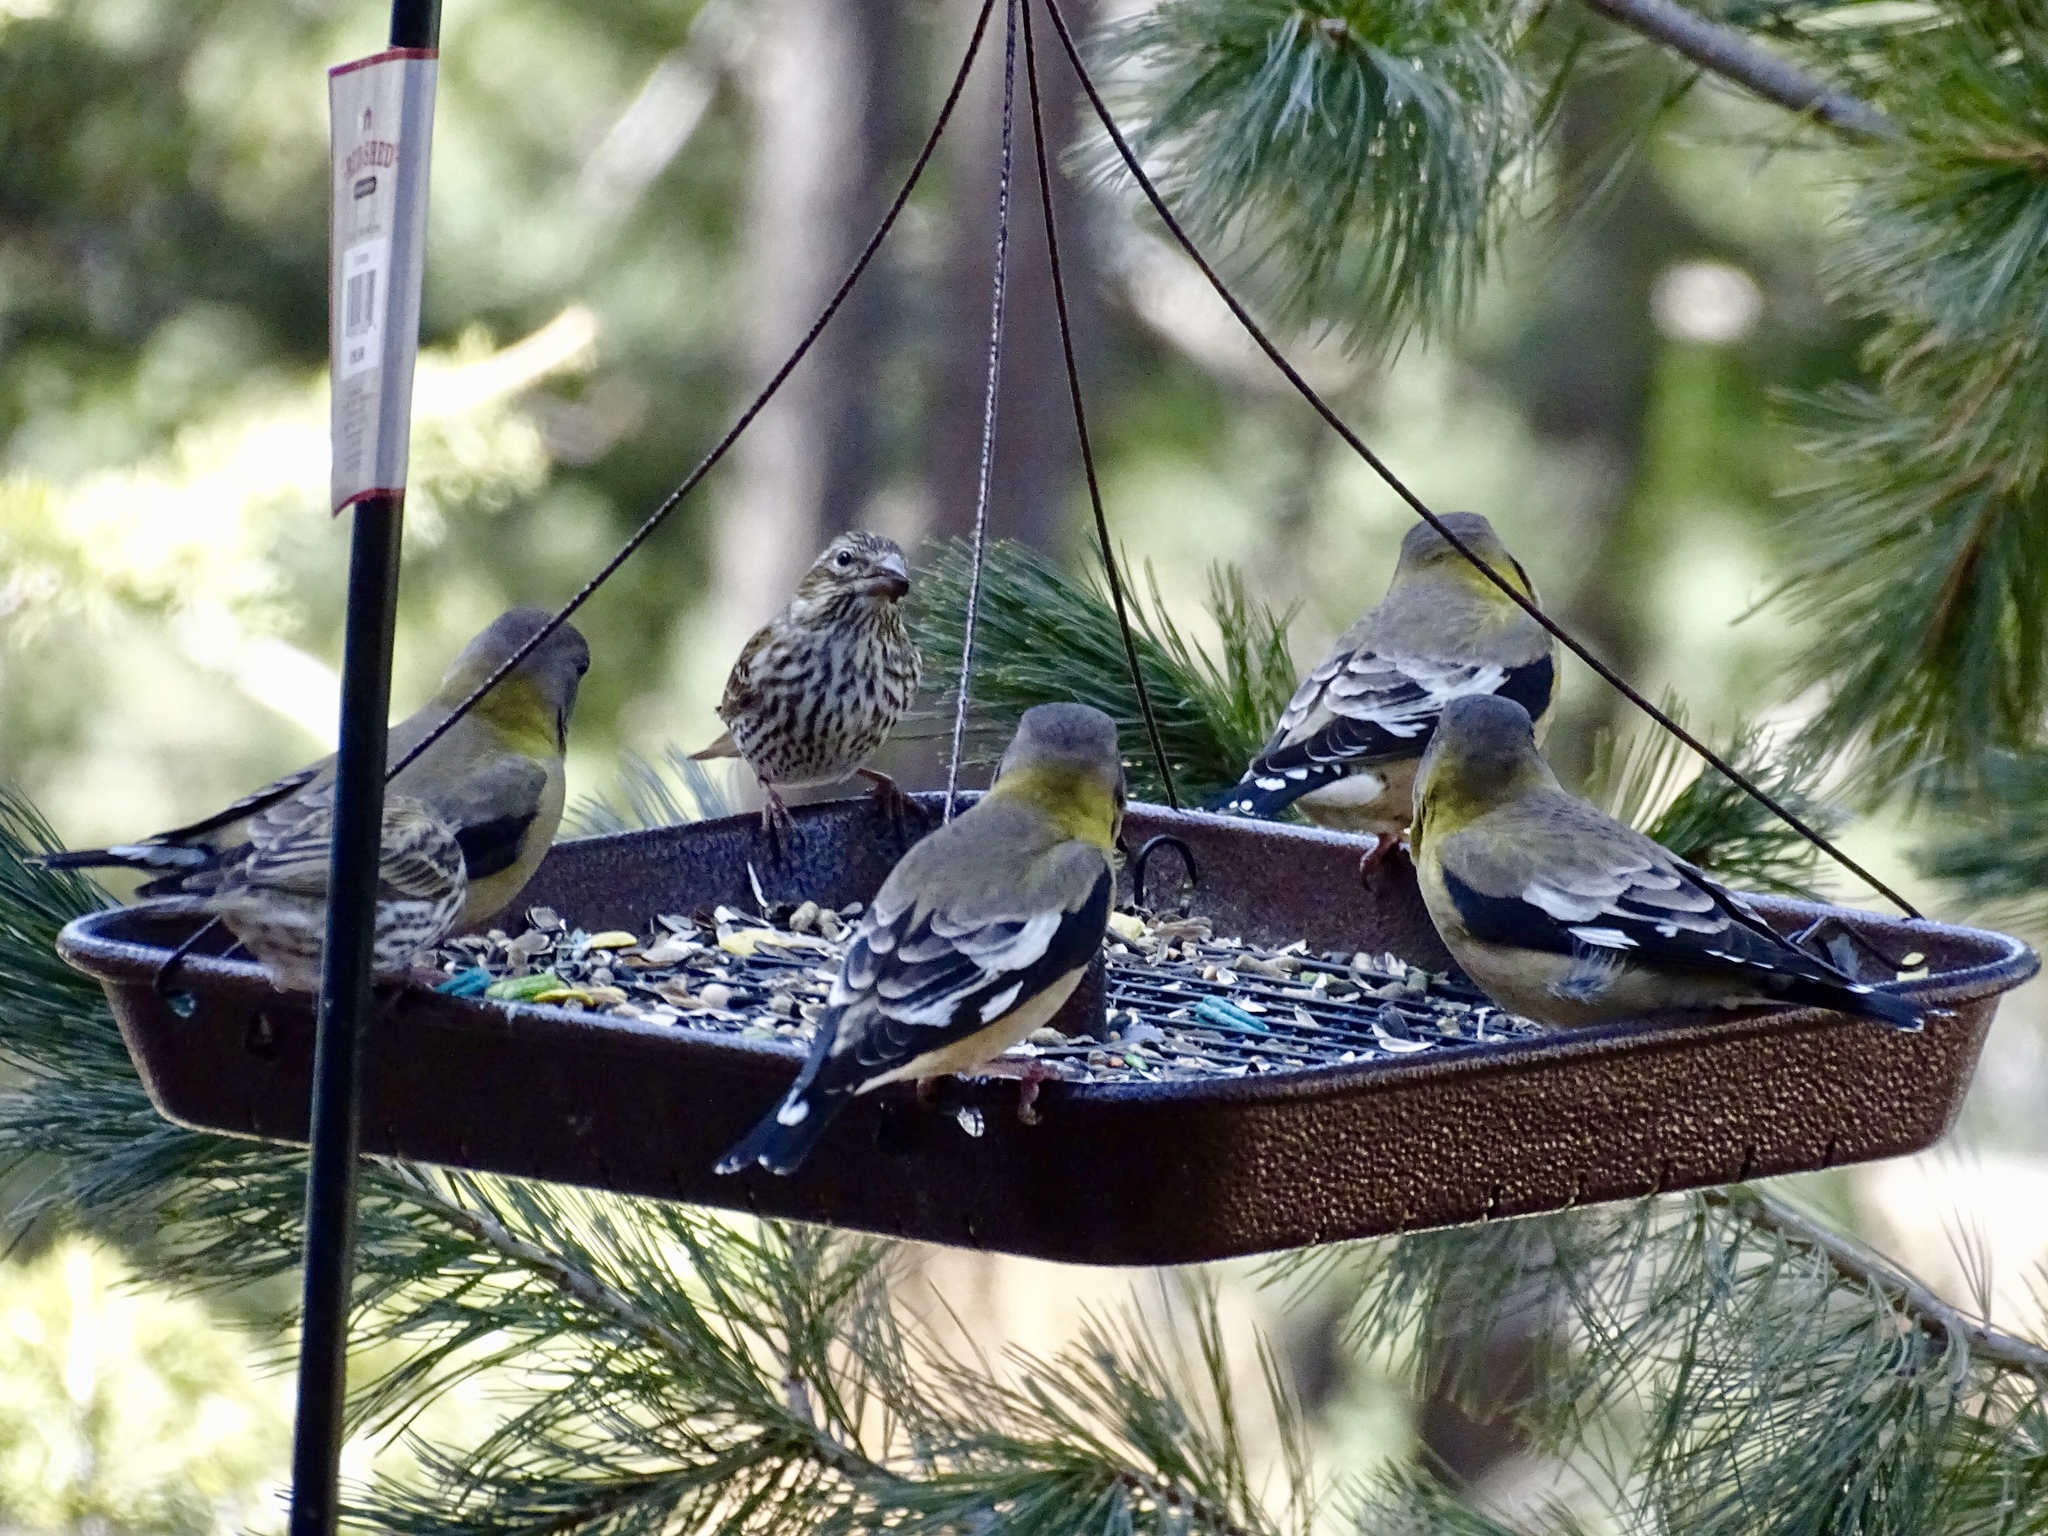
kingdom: Animalia
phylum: Chordata
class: Aves
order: Passeriformes
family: Fringillidae
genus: Hesperiphona
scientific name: Hesperiphona vespertina
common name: Evening grosbeak
